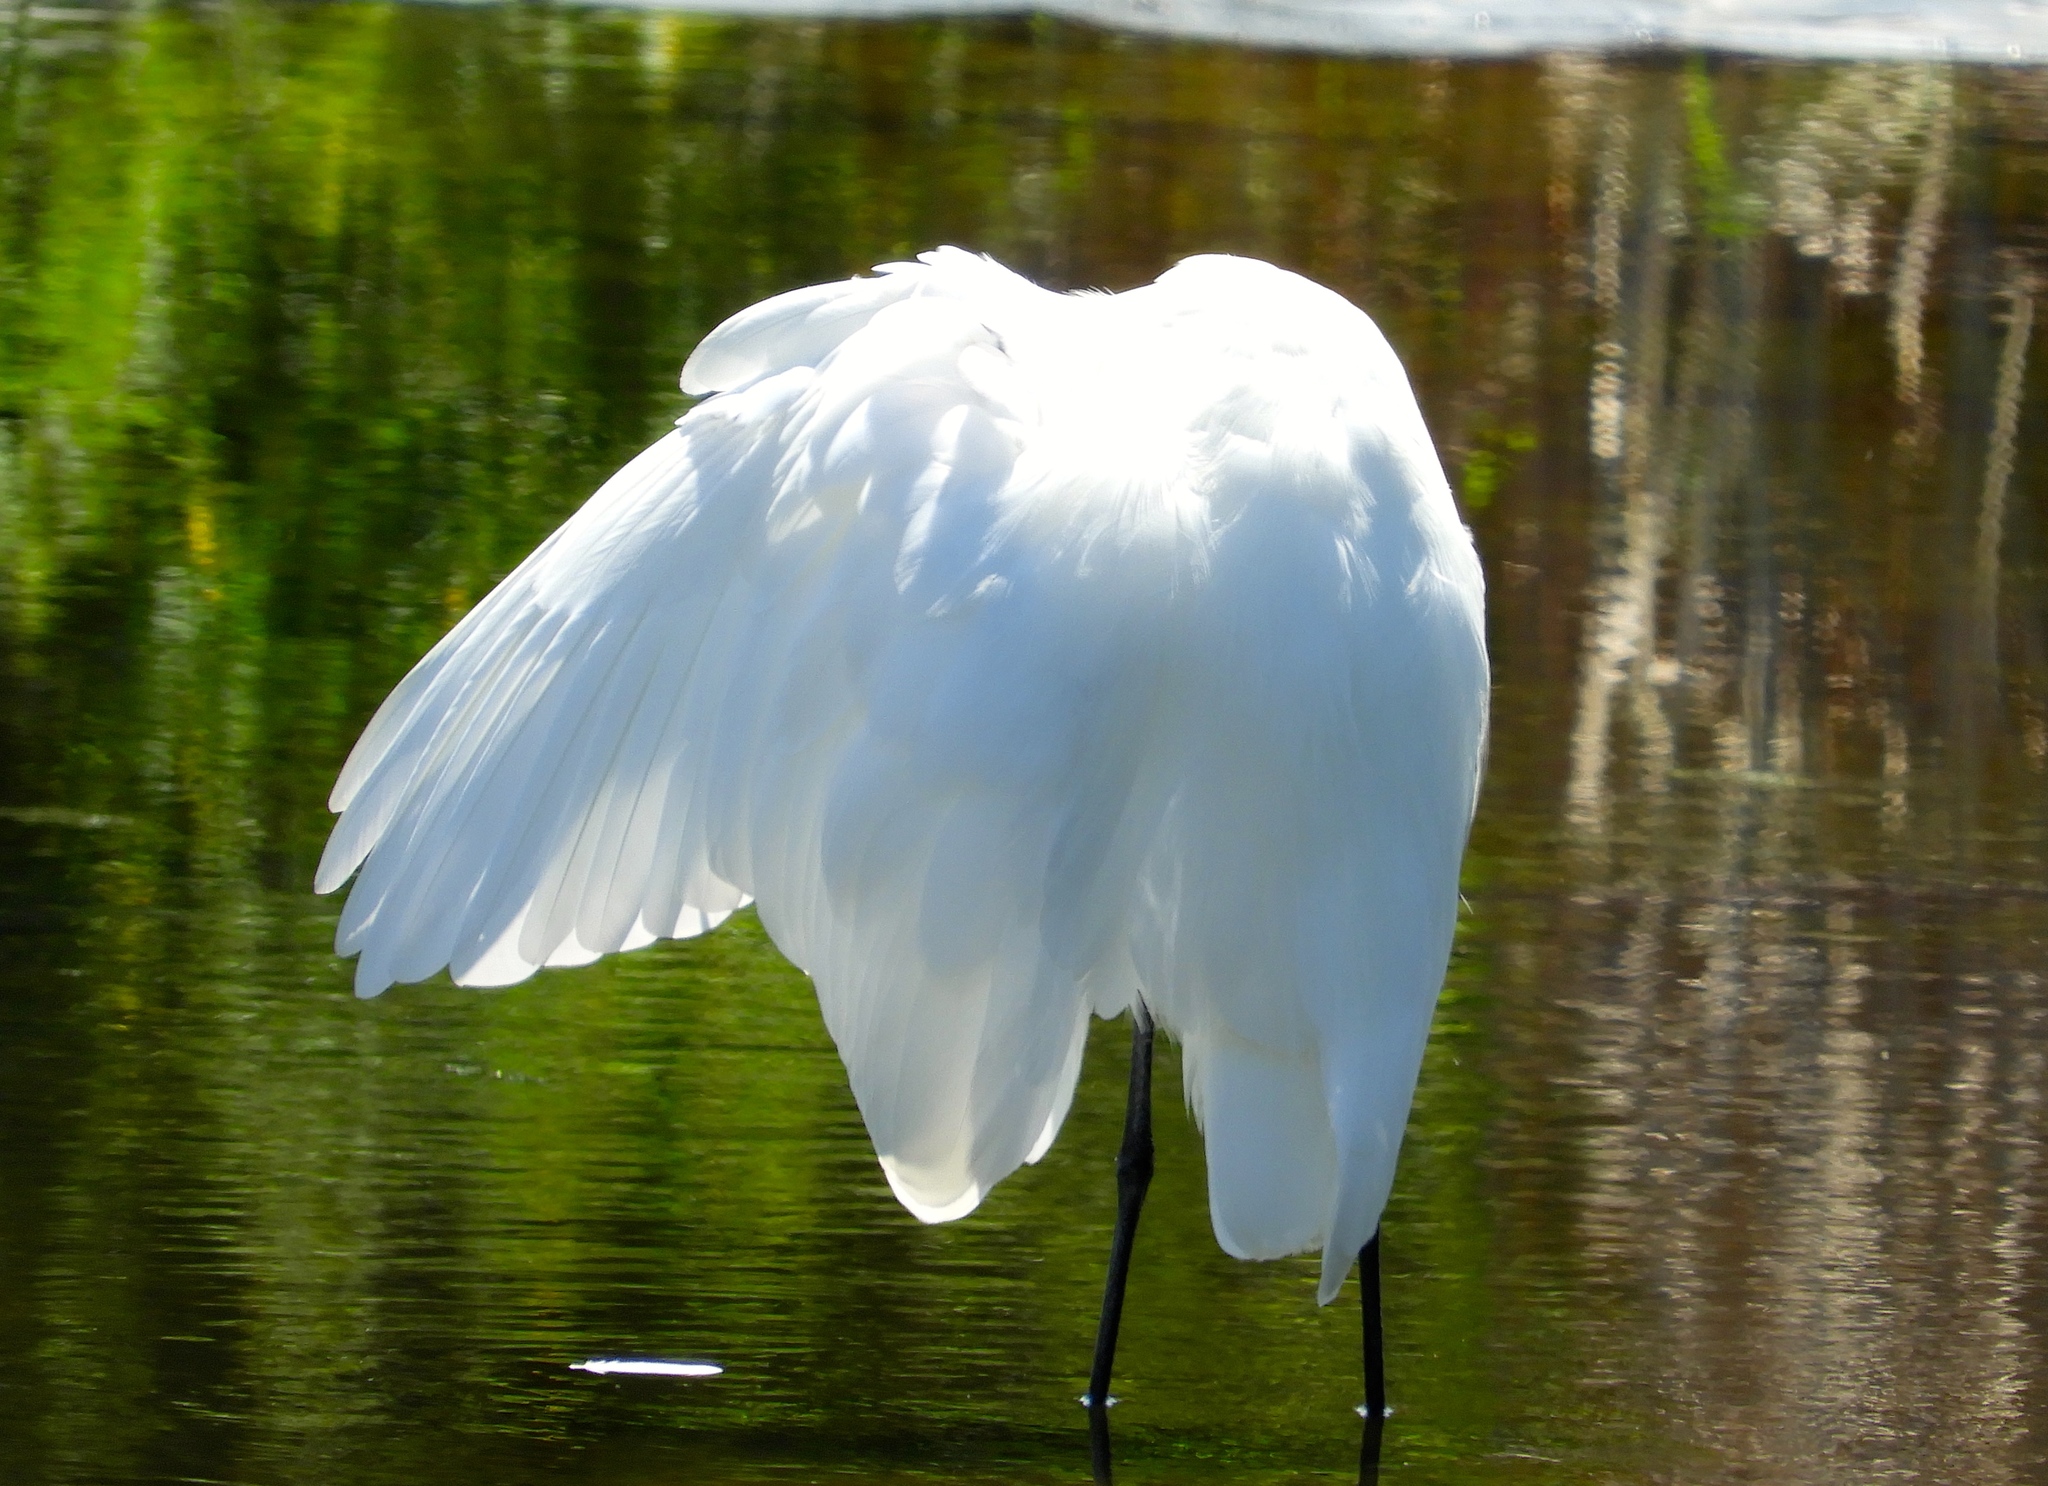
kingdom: Animalia
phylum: Chordata
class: Aves
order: Pelecaniformes
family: Ardeidae
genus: Ardea
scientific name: Ardea alba
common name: Great egret
